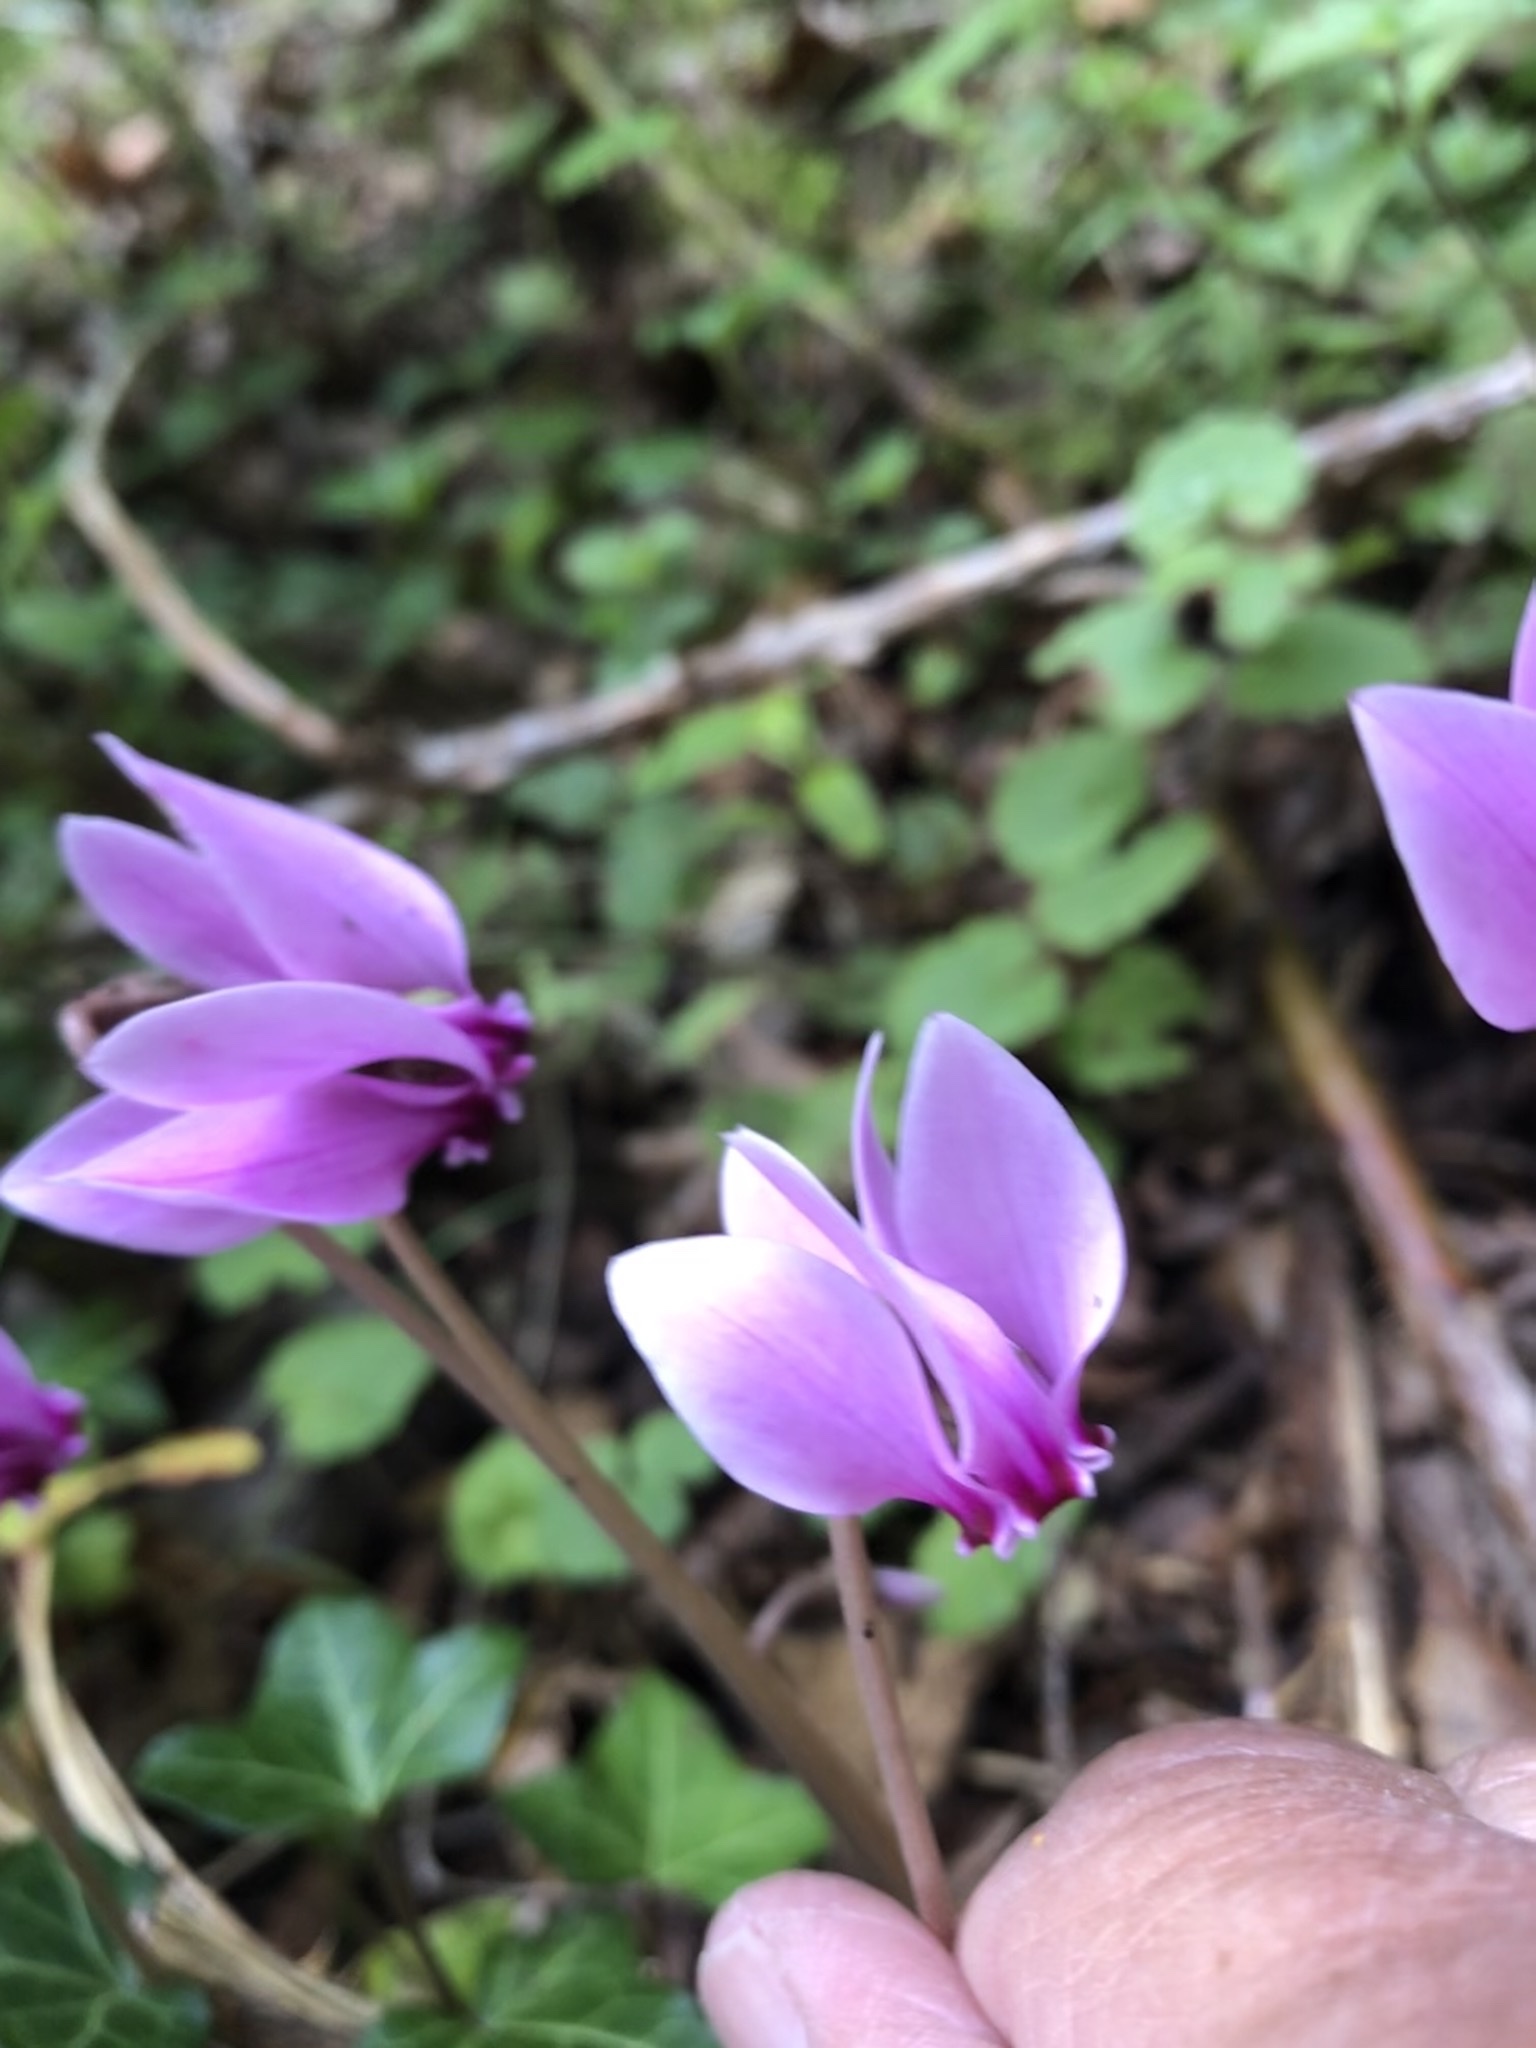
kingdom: Plantae
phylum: Tracheophyta
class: Magnoliopsida
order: Ericales
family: Primulaceae
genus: Cyclamen
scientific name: Cyclamen hederifolium
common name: Sowbread
